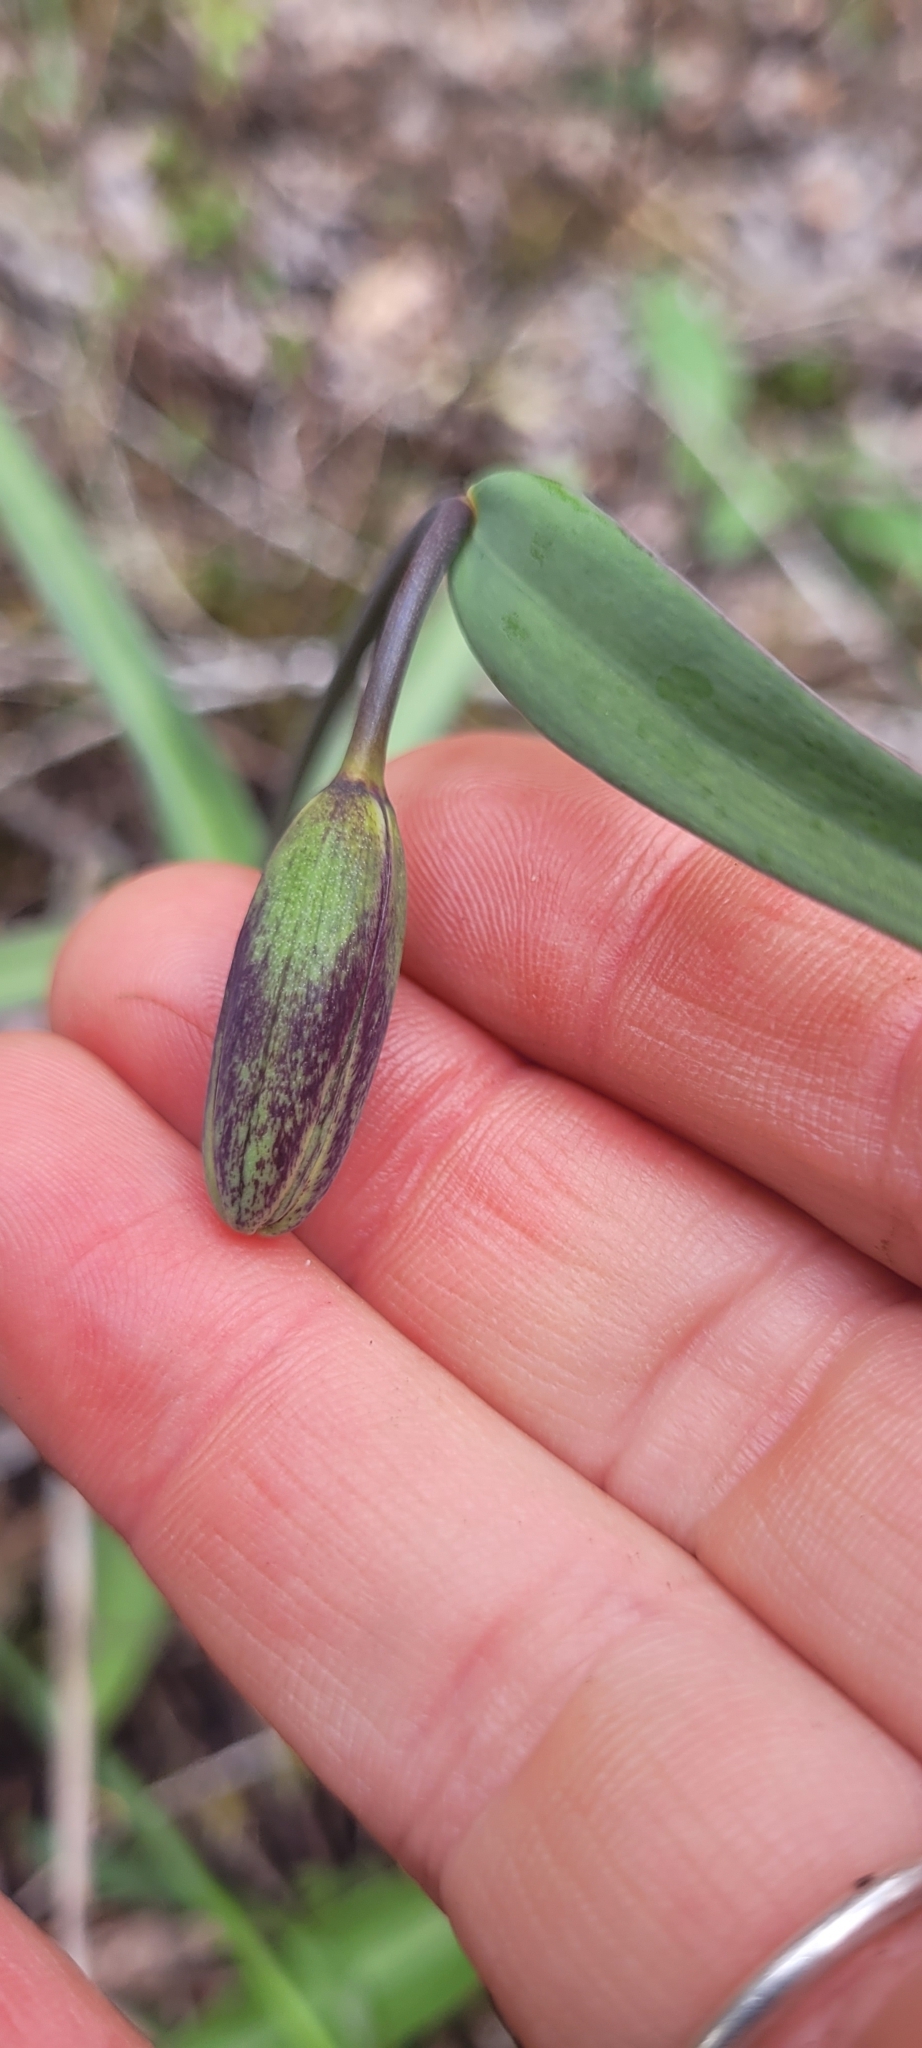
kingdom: Plantae
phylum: Tracheophyta
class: Liliopsida
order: Liliales
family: Liliaceae
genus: Fritillaria
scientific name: Fritillaria affinis
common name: Ojai fritillary
